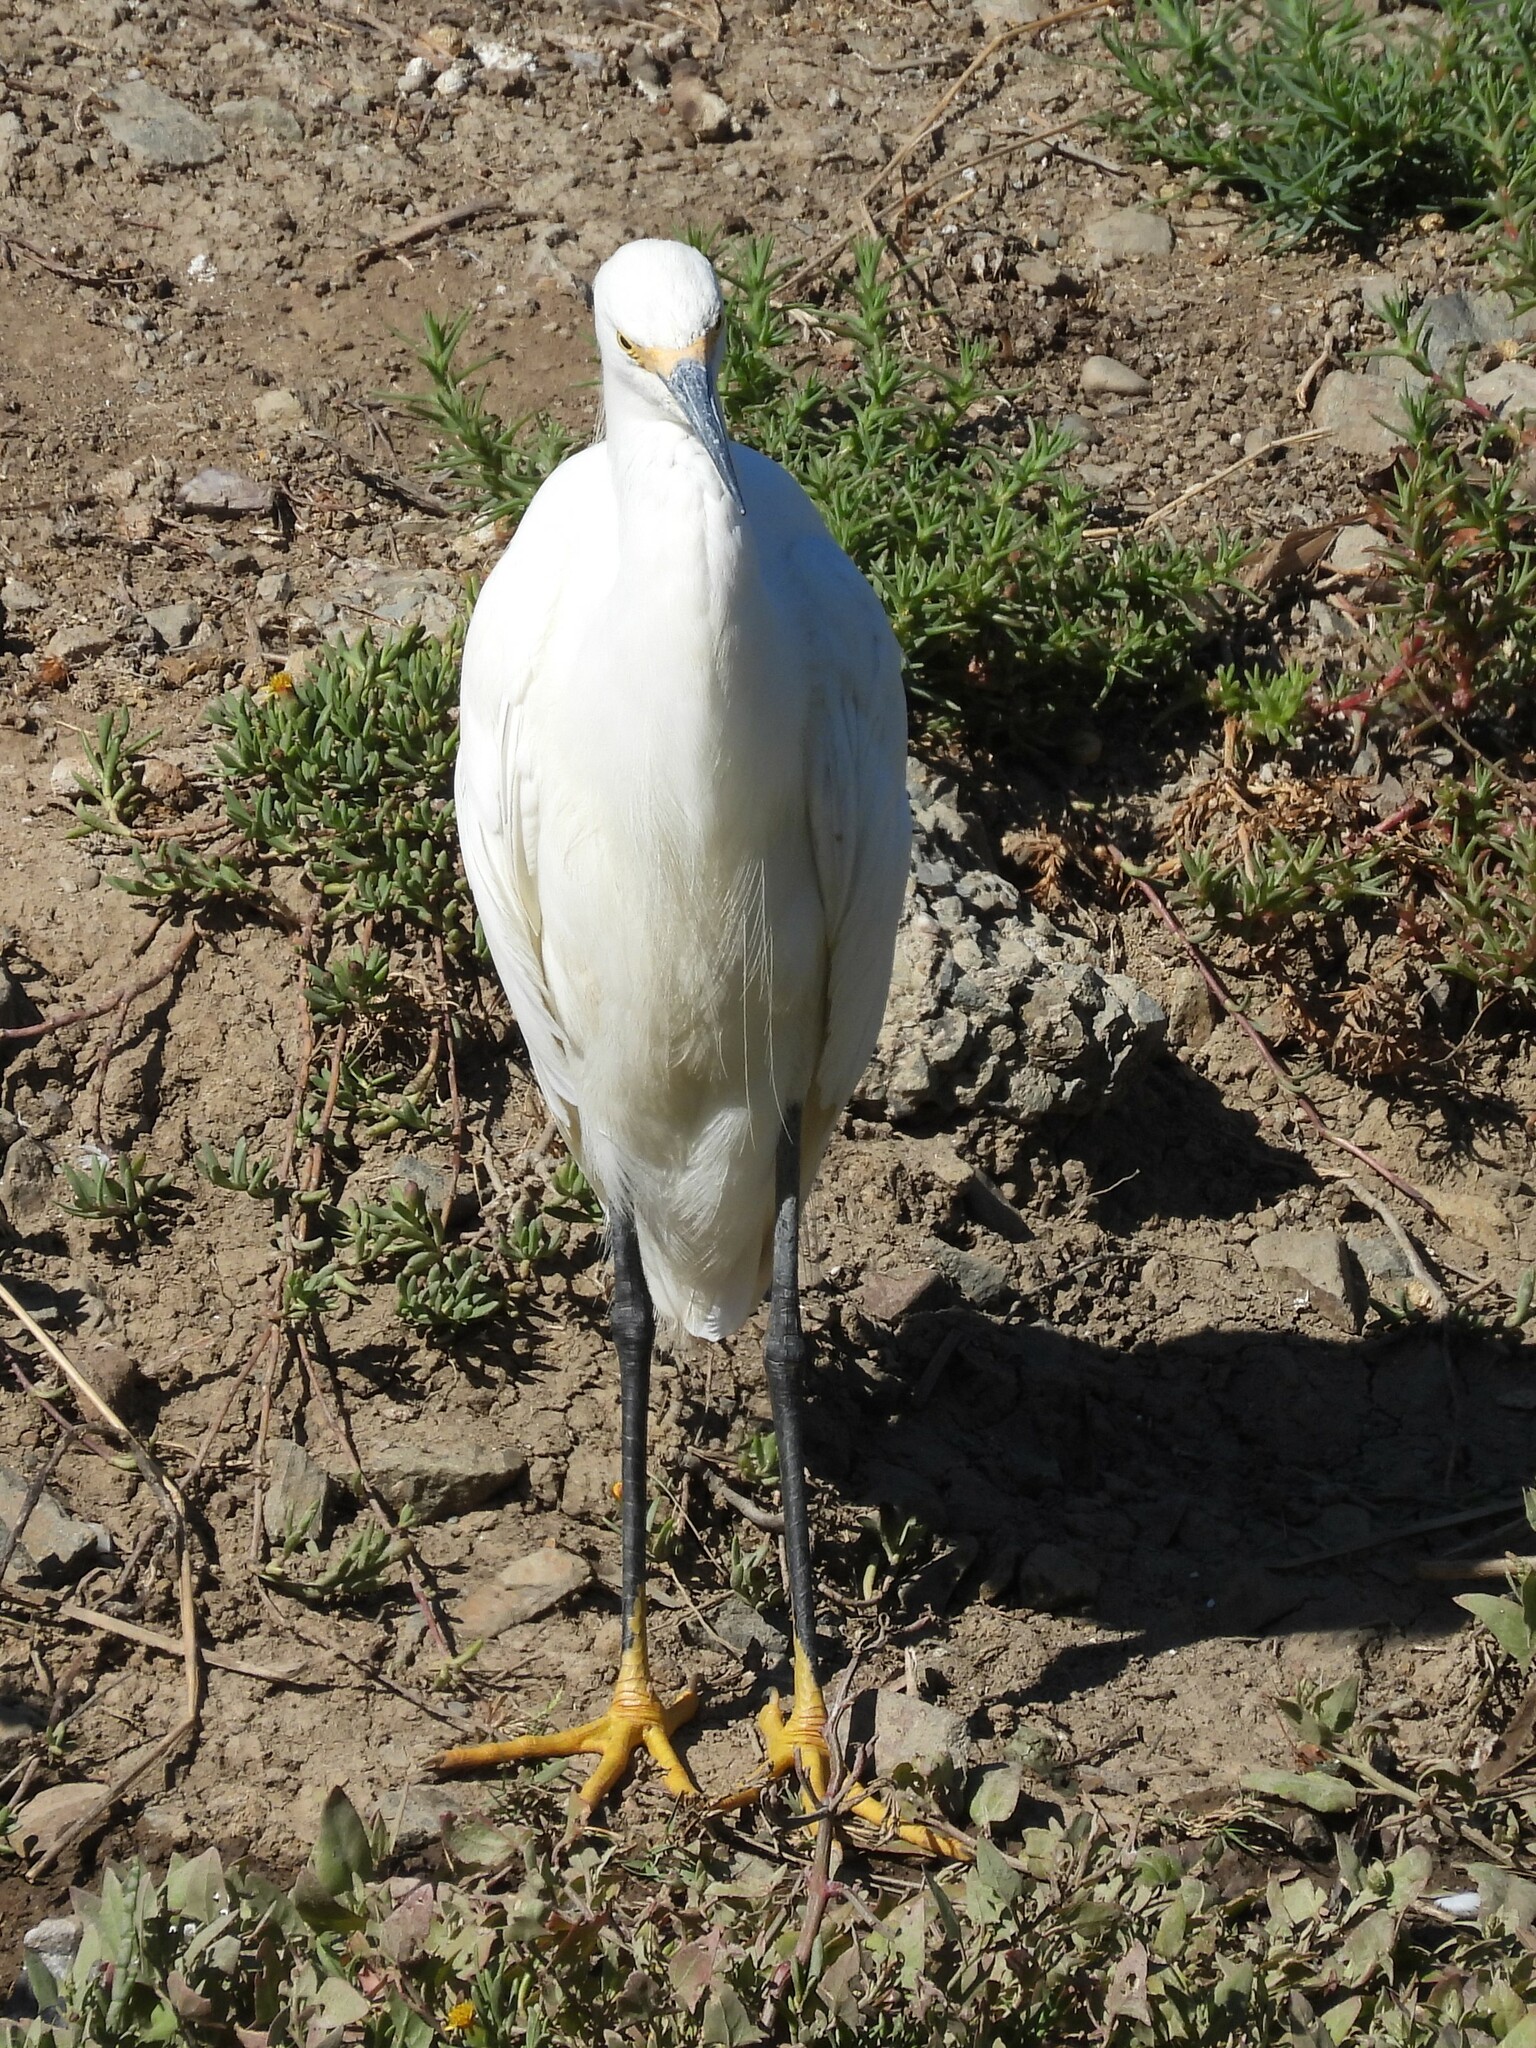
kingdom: Animalia
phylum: Chordata
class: Aves
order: Pelecaniformes
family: Ardeidae
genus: Egretta
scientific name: Egretta thula
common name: Snowy egret
